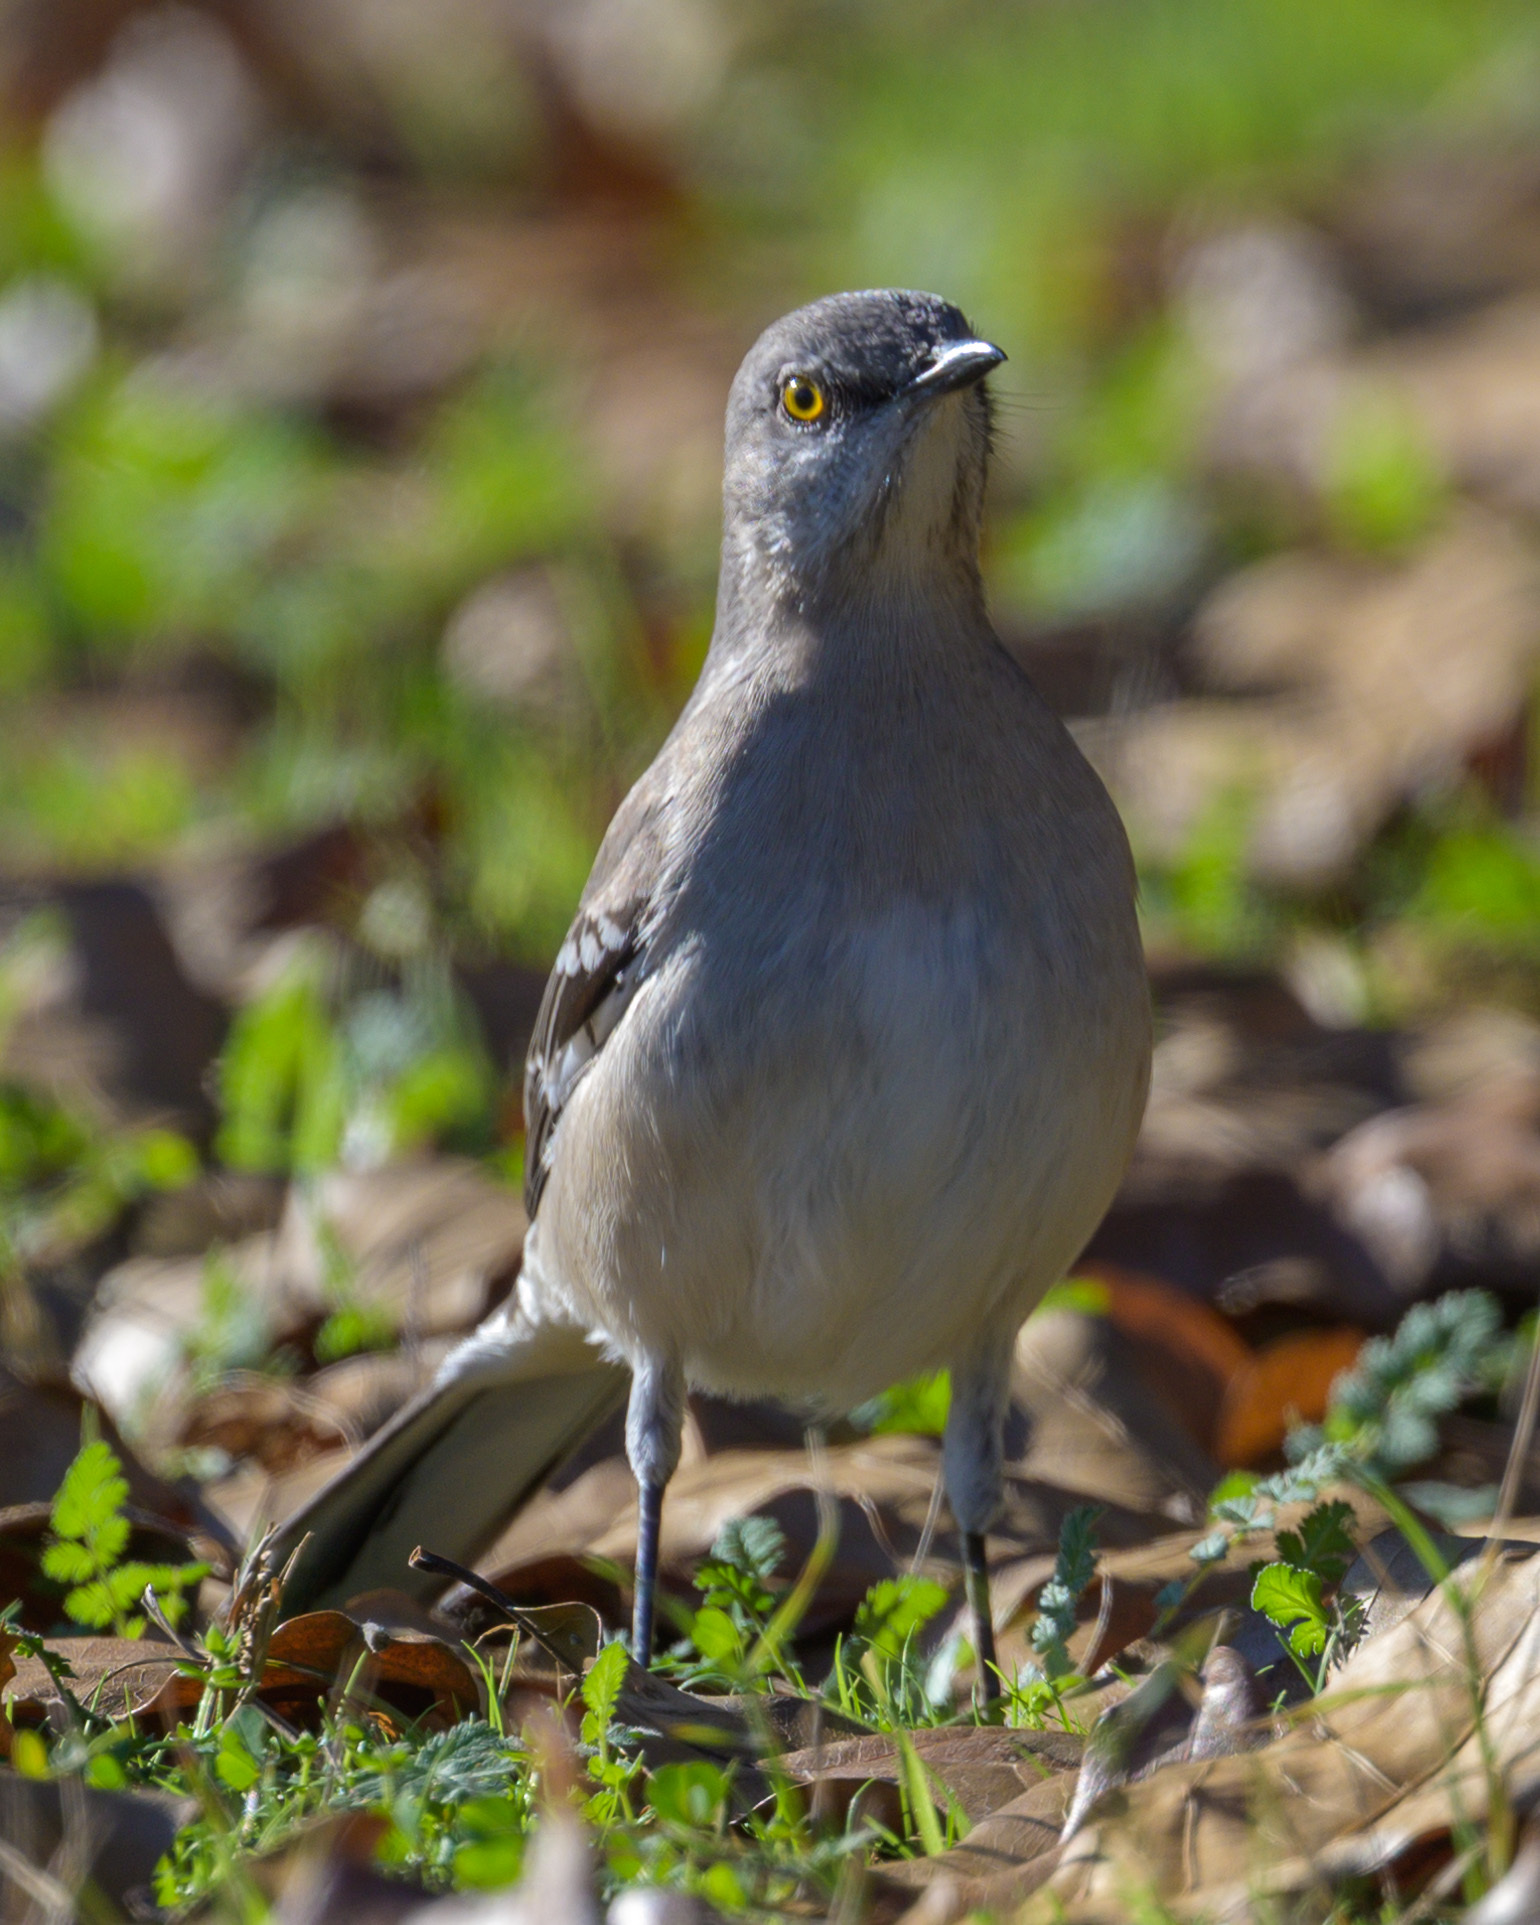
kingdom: Animalia
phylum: Chordata
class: Aves
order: Passeriformes
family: Mimidae
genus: Mimus
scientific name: Mimus polyglottos
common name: Northern mockingbird
